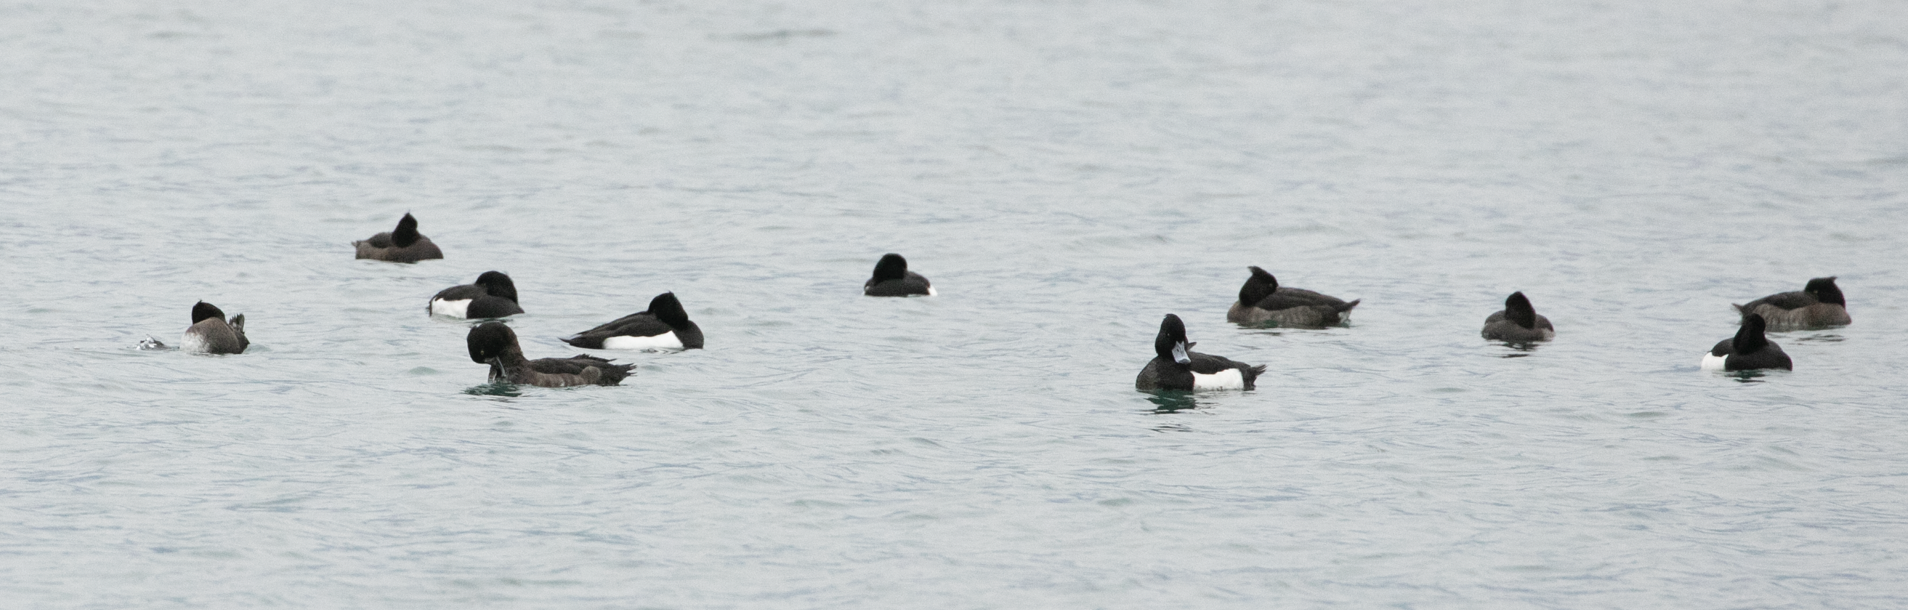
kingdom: Animalia
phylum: Chordata
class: Aves
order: Anseriformes
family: Anatidae
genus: Aythya
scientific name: Aythya fuligula
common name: Tufted duck
